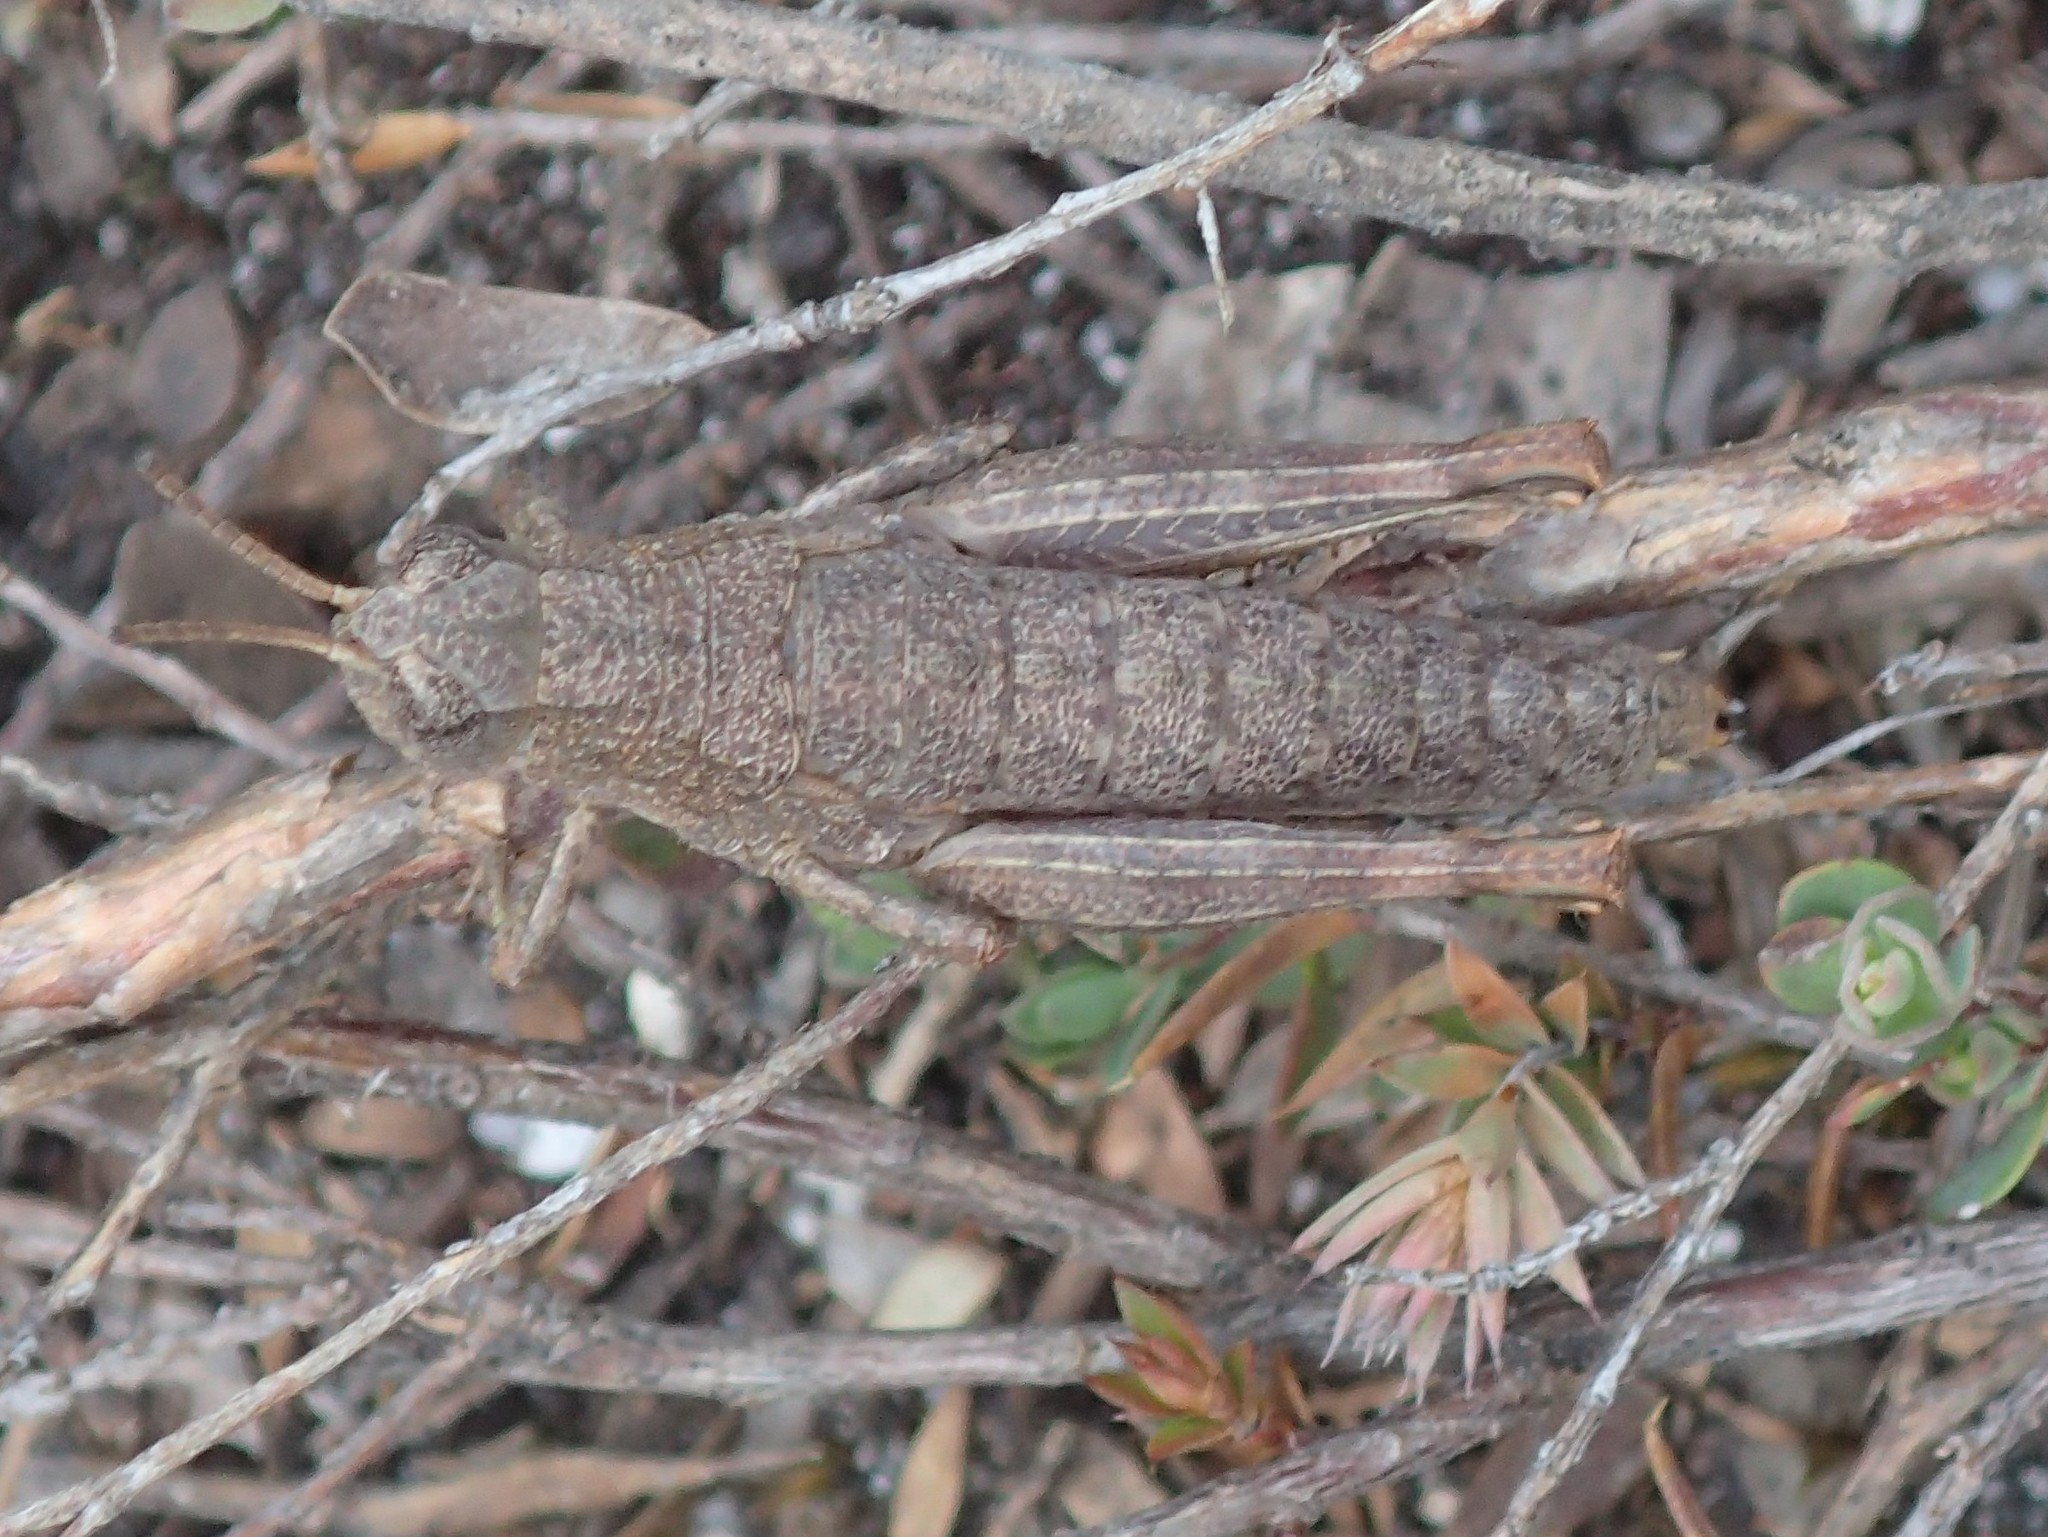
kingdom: Animalia
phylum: Arthropoda
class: Insecta
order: Orthoptera
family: Acrididae
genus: Tasmaniacris
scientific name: Tasmaniacris tasmaniensis
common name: Tasmanian grasshopper
